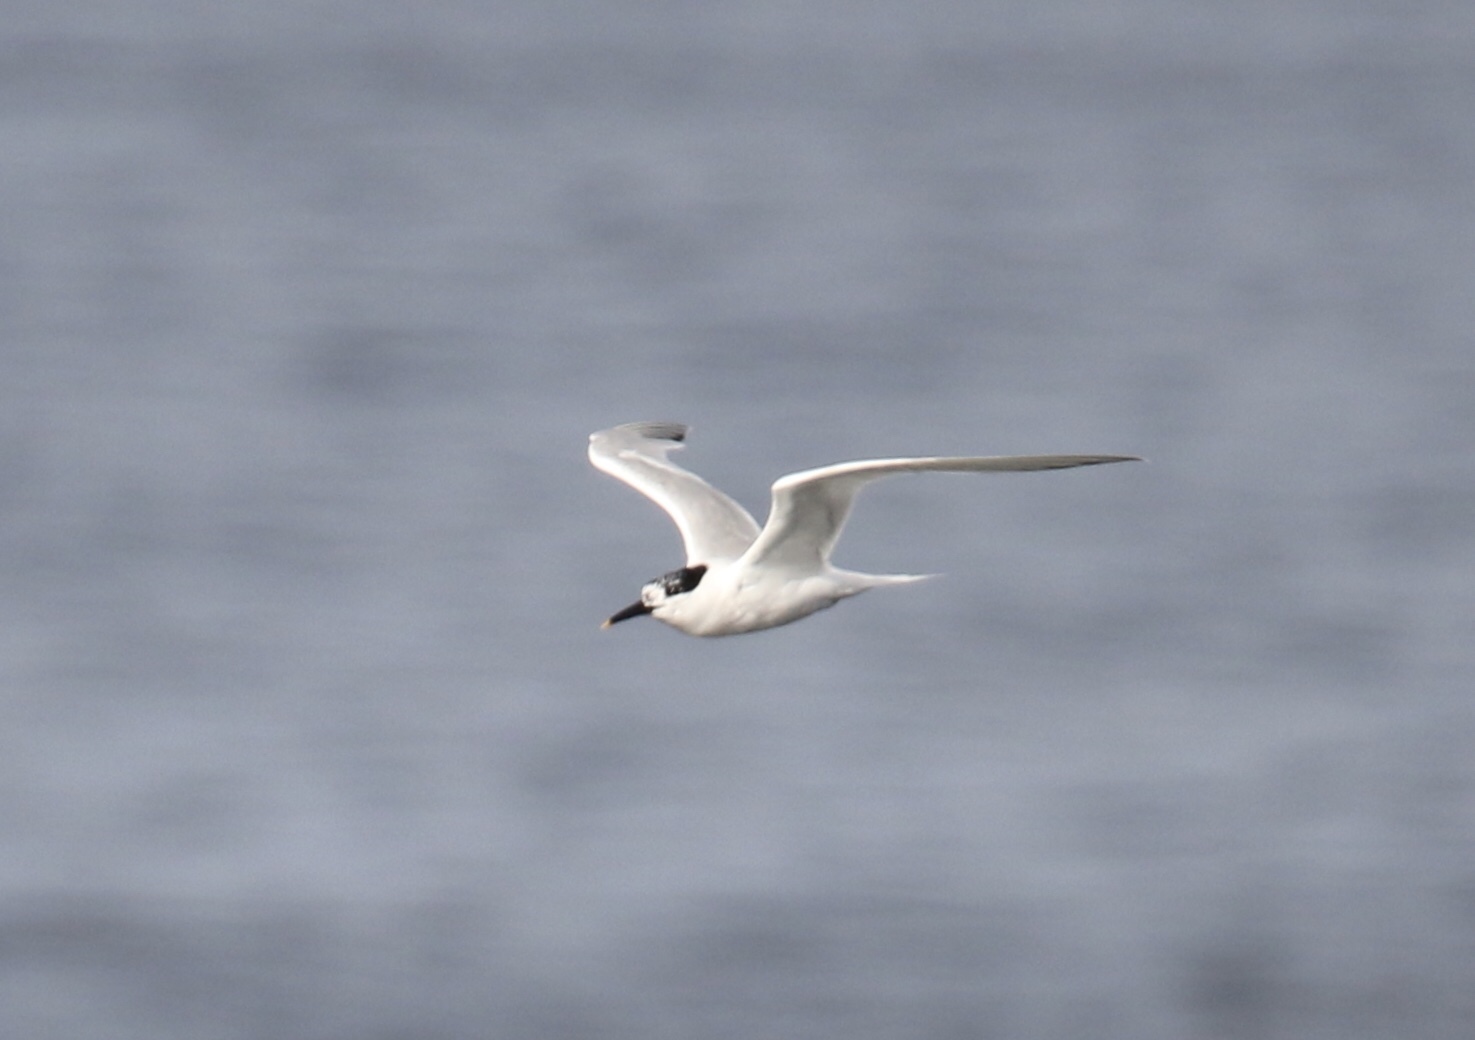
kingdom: Animalia
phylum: Chordata
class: Aves
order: Charadriiformes
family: Laridae
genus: Thalasseus
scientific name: Thalasseus sandvicensis
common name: Sandwich tern
